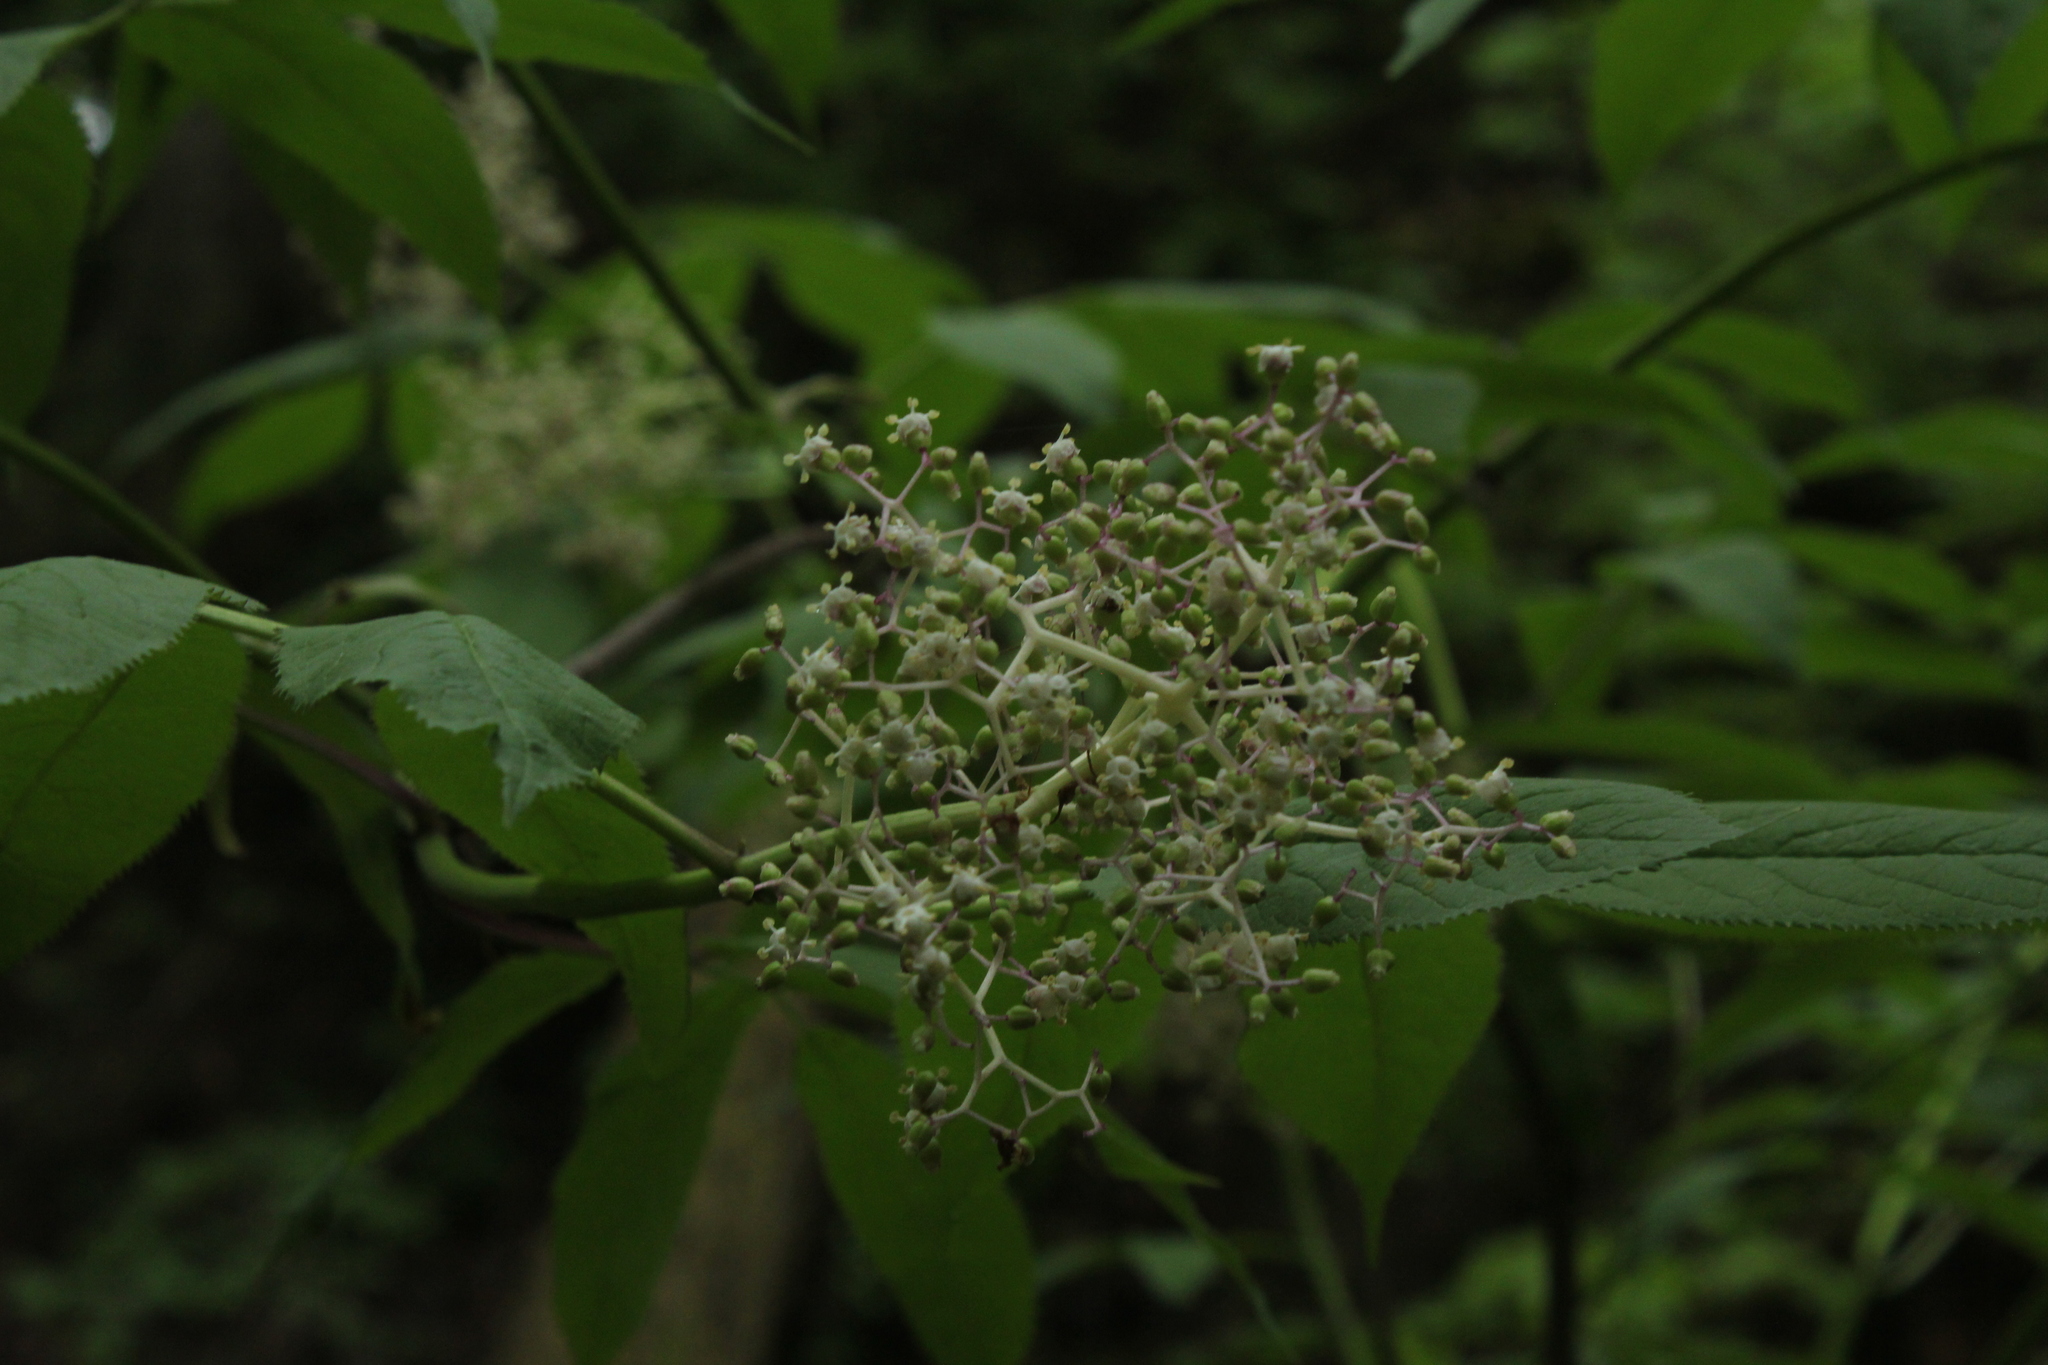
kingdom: Plantae
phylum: Tracheophyta
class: Magnoliopsida
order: Dipsacales
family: Viburnaceae
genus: Sambucus
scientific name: Sambucus racemosa
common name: Red-berried elder
